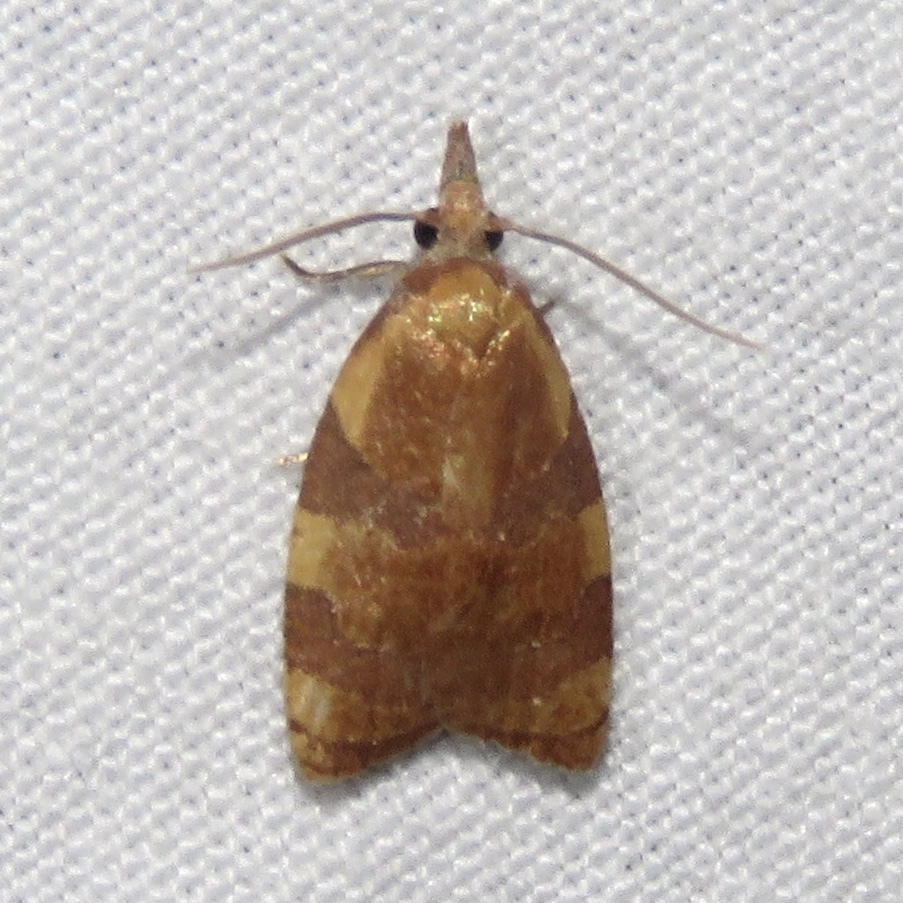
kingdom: Animalia
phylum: Arthropoda
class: Insecta
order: Lepidoptera
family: Tortricidae
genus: Cenopis
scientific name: Cenopis diluticostana
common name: Spring dead-leaf roller moth
